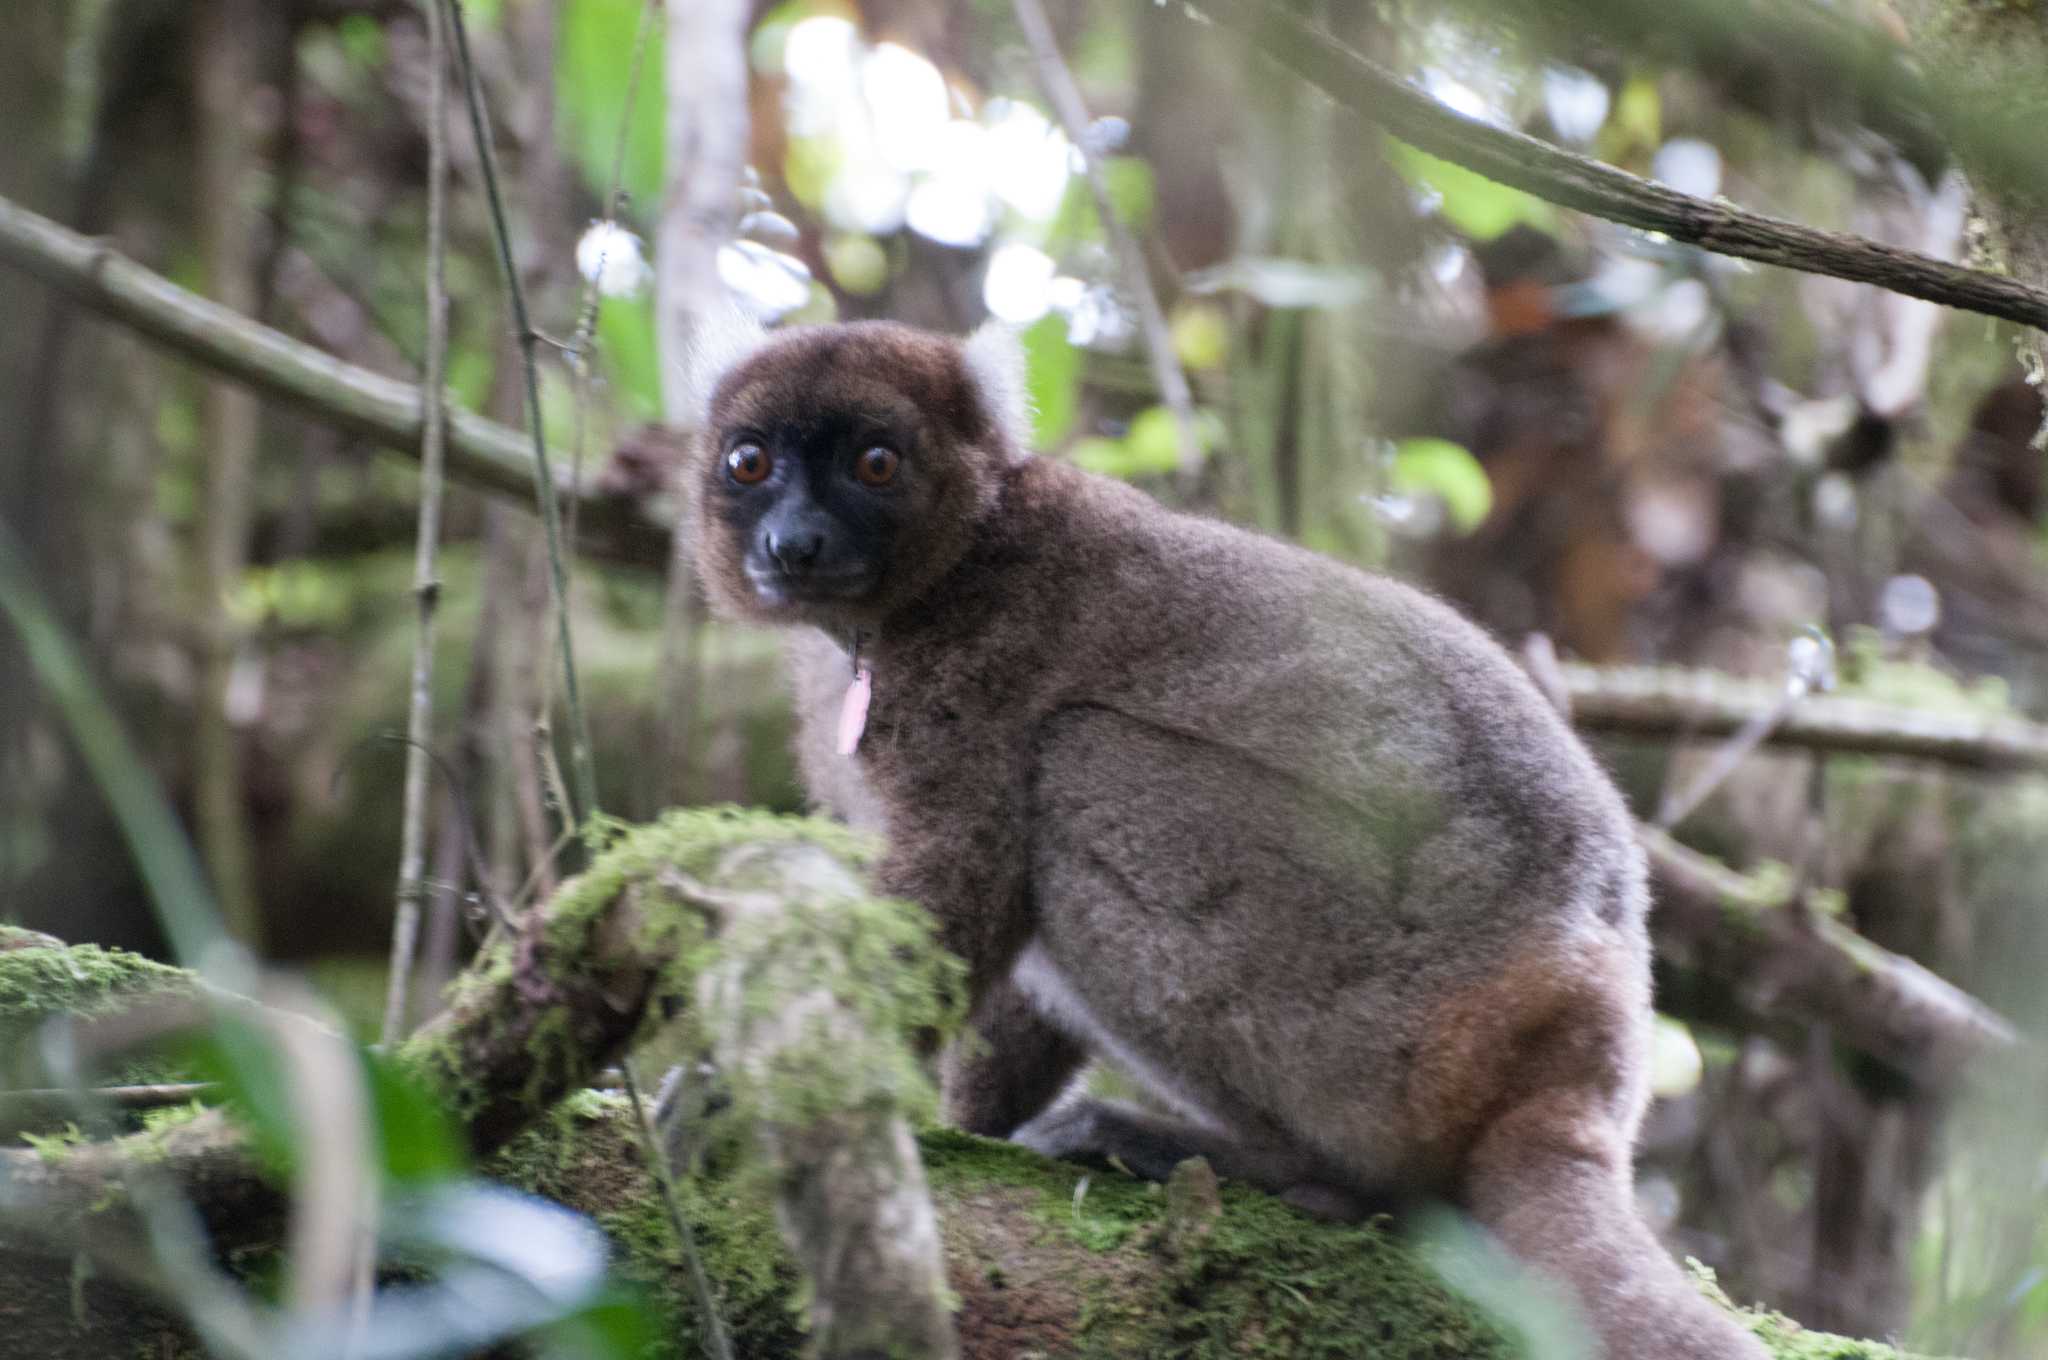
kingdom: Animalia
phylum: Chordata
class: Mammalia
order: Primates
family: Lemuridae
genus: Prolemur
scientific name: Prolemur simus
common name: Greater bamboo lemur
